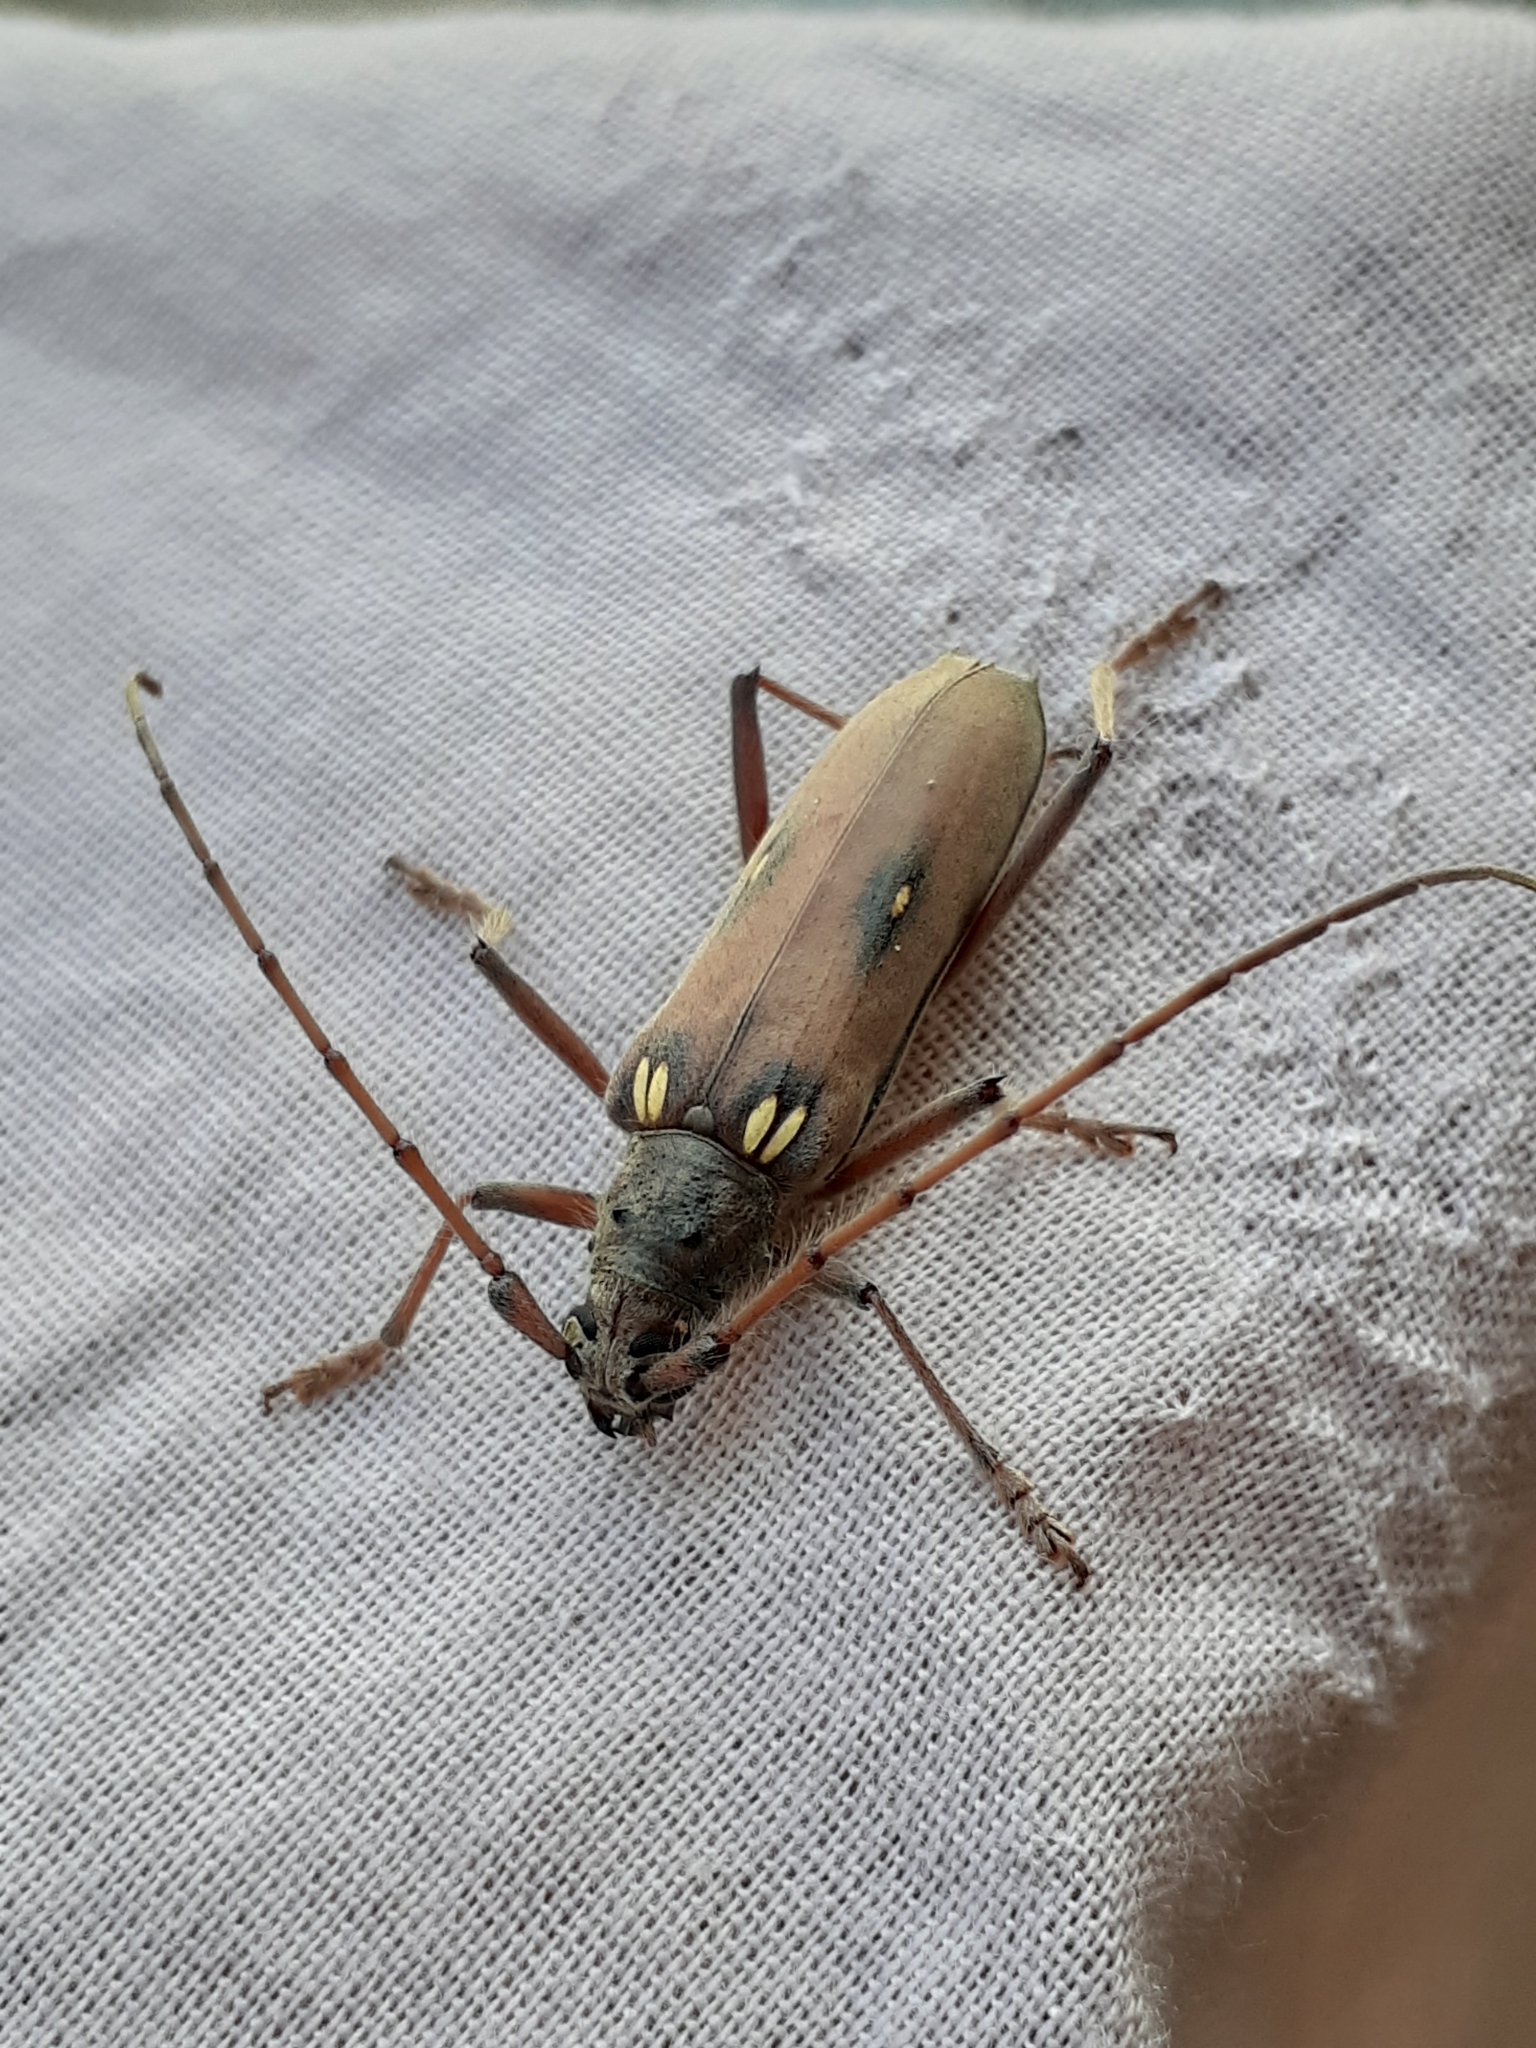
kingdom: Animalia
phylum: Arthropoda
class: Insecta
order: Coleoptera
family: Cerambycidae
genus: Eburia
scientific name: Eburia pilosa
